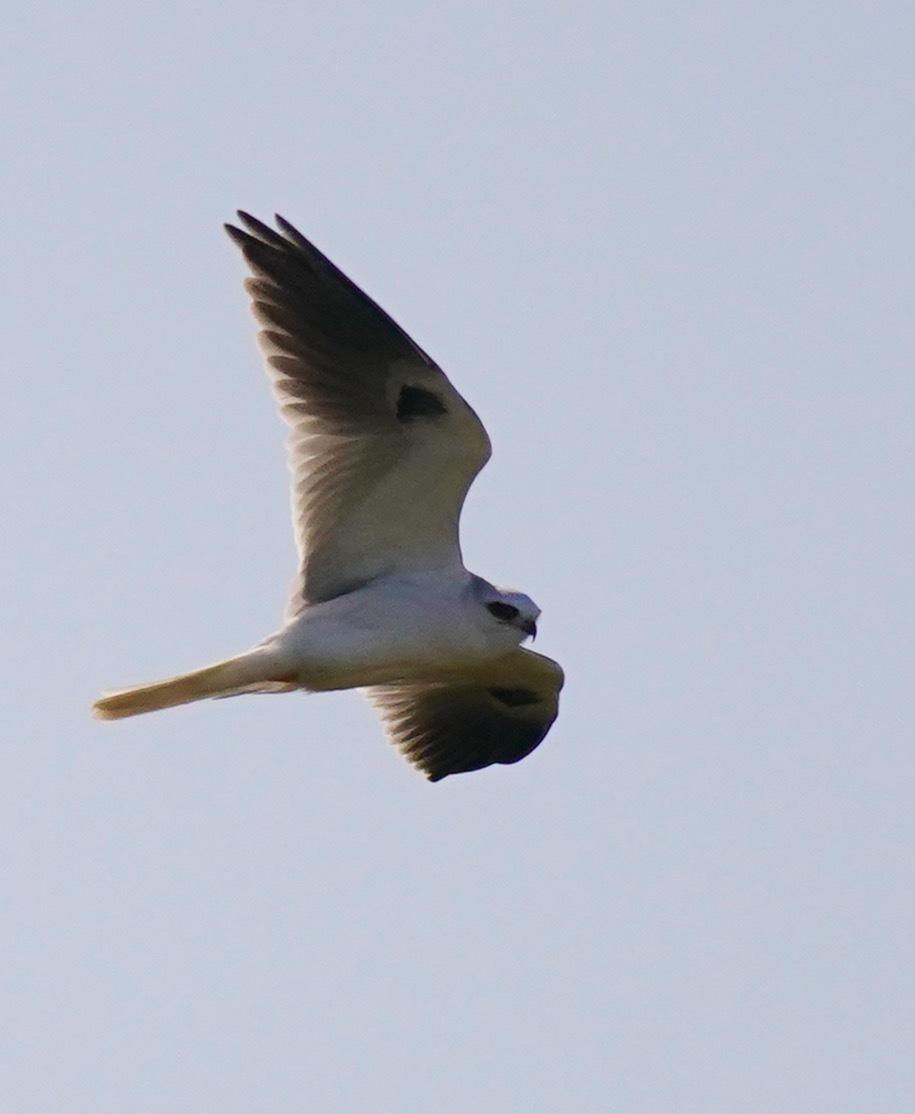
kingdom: Animalia
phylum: Chordata
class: Aves
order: Accipitriformes
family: Accipitridae
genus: Elanus
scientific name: Elanus leucurus
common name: White-tailed kite
